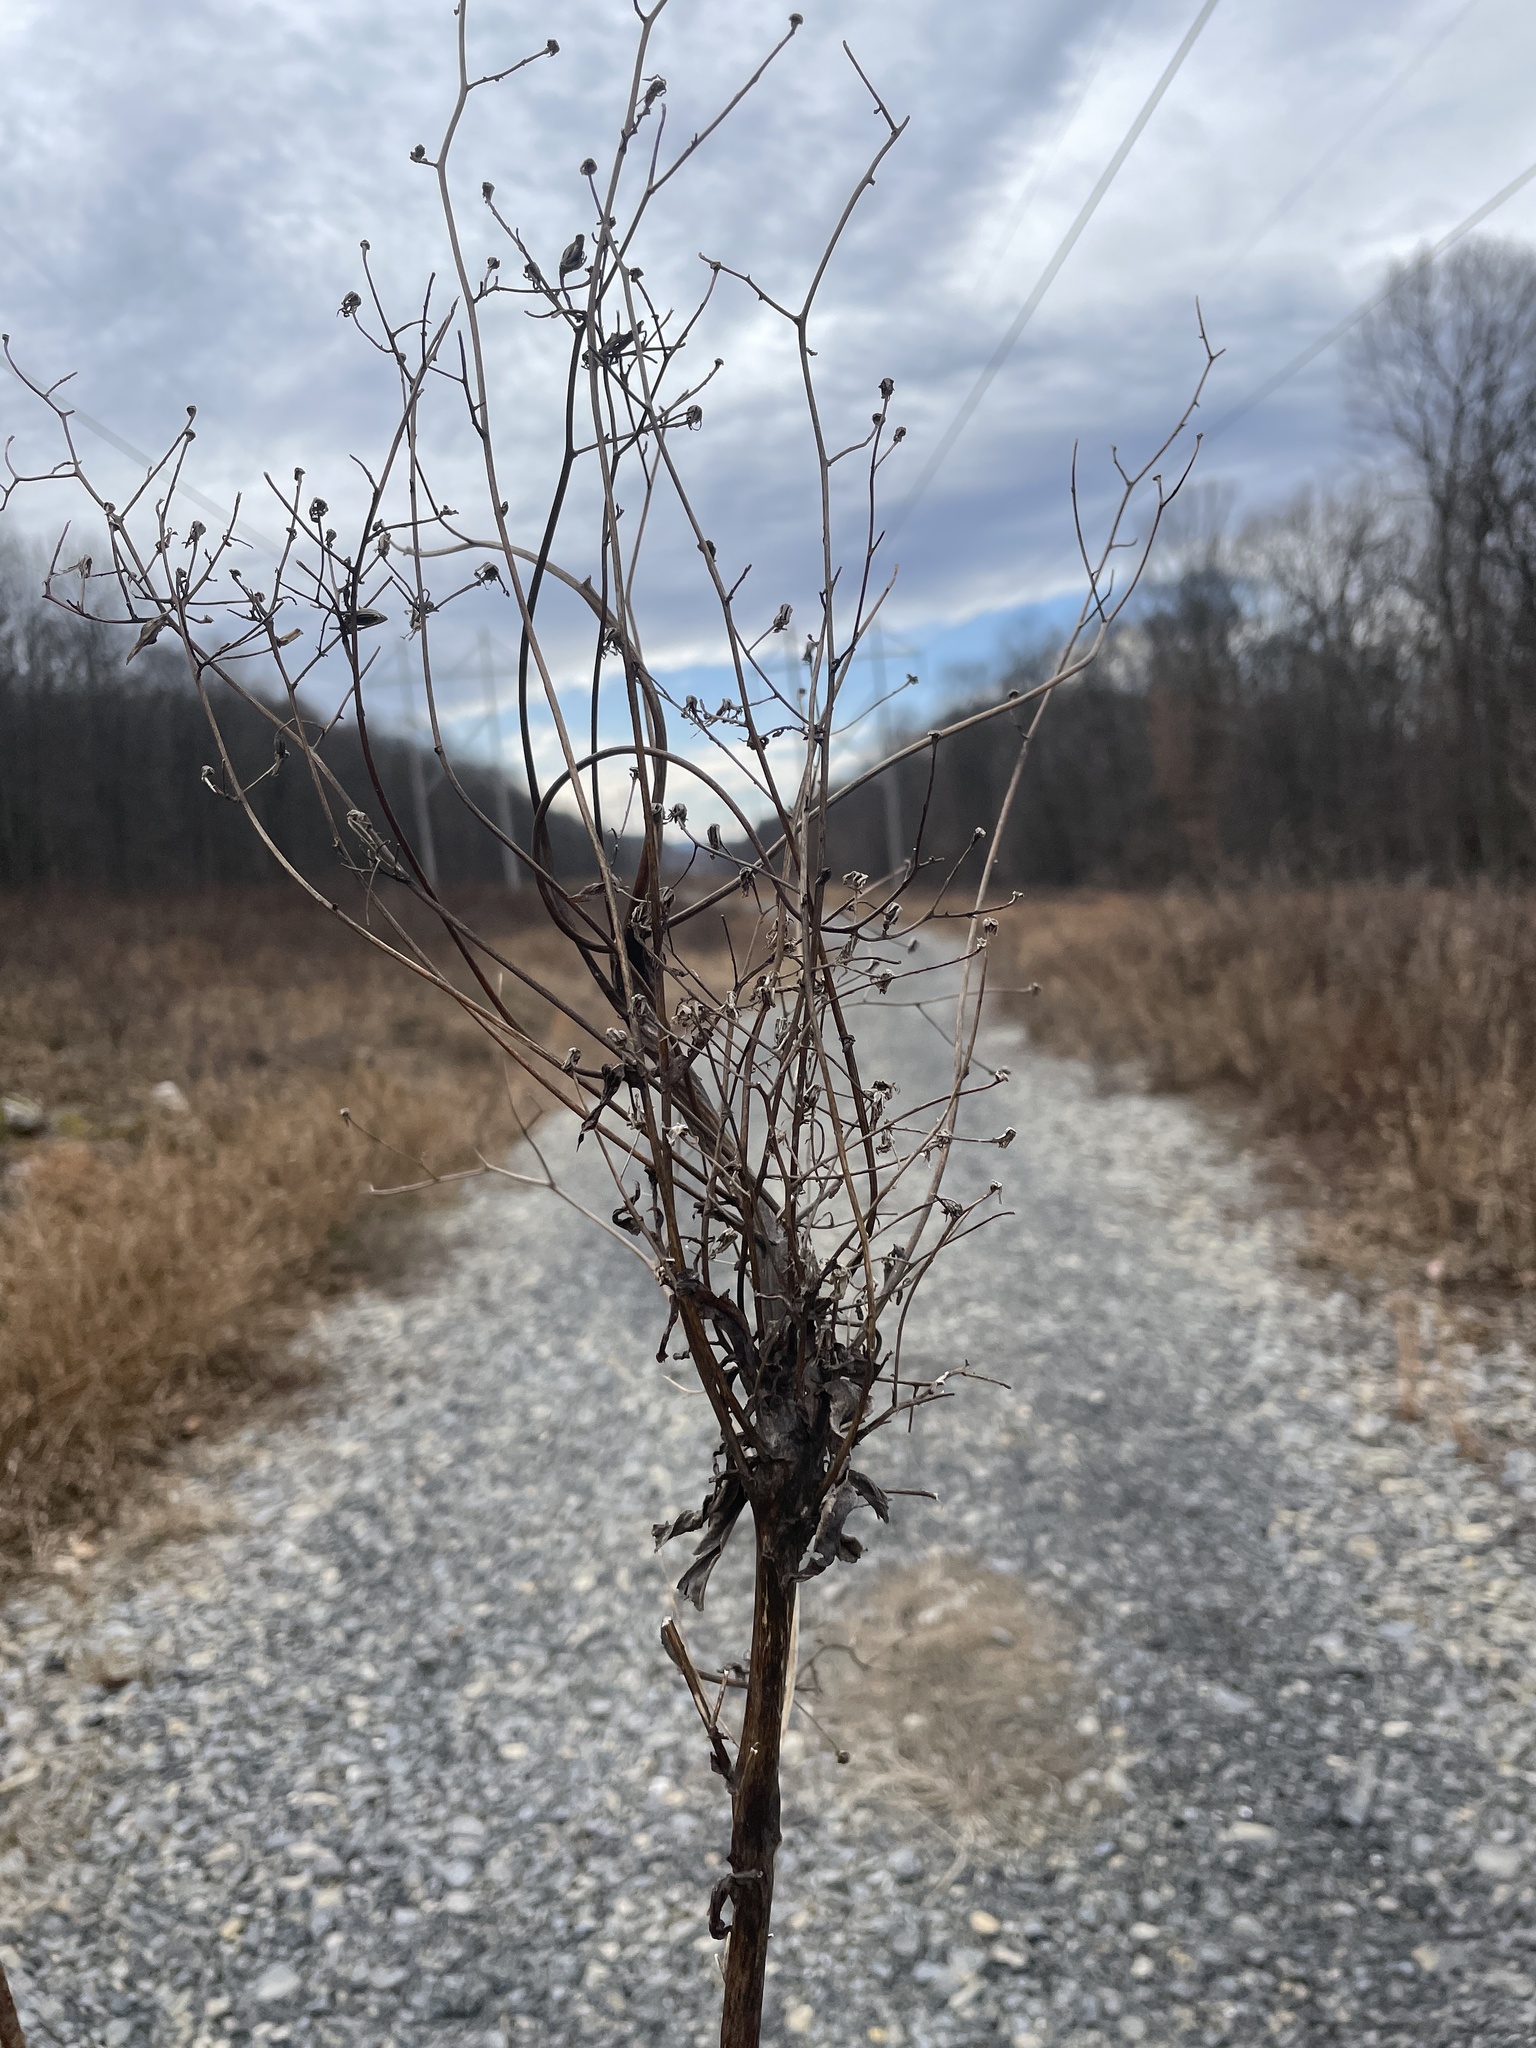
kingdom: Animalia
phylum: Arthropoda
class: Insecta
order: Hymenoptera
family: Cynipidae
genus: Aulacidea
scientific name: Aulacidea
